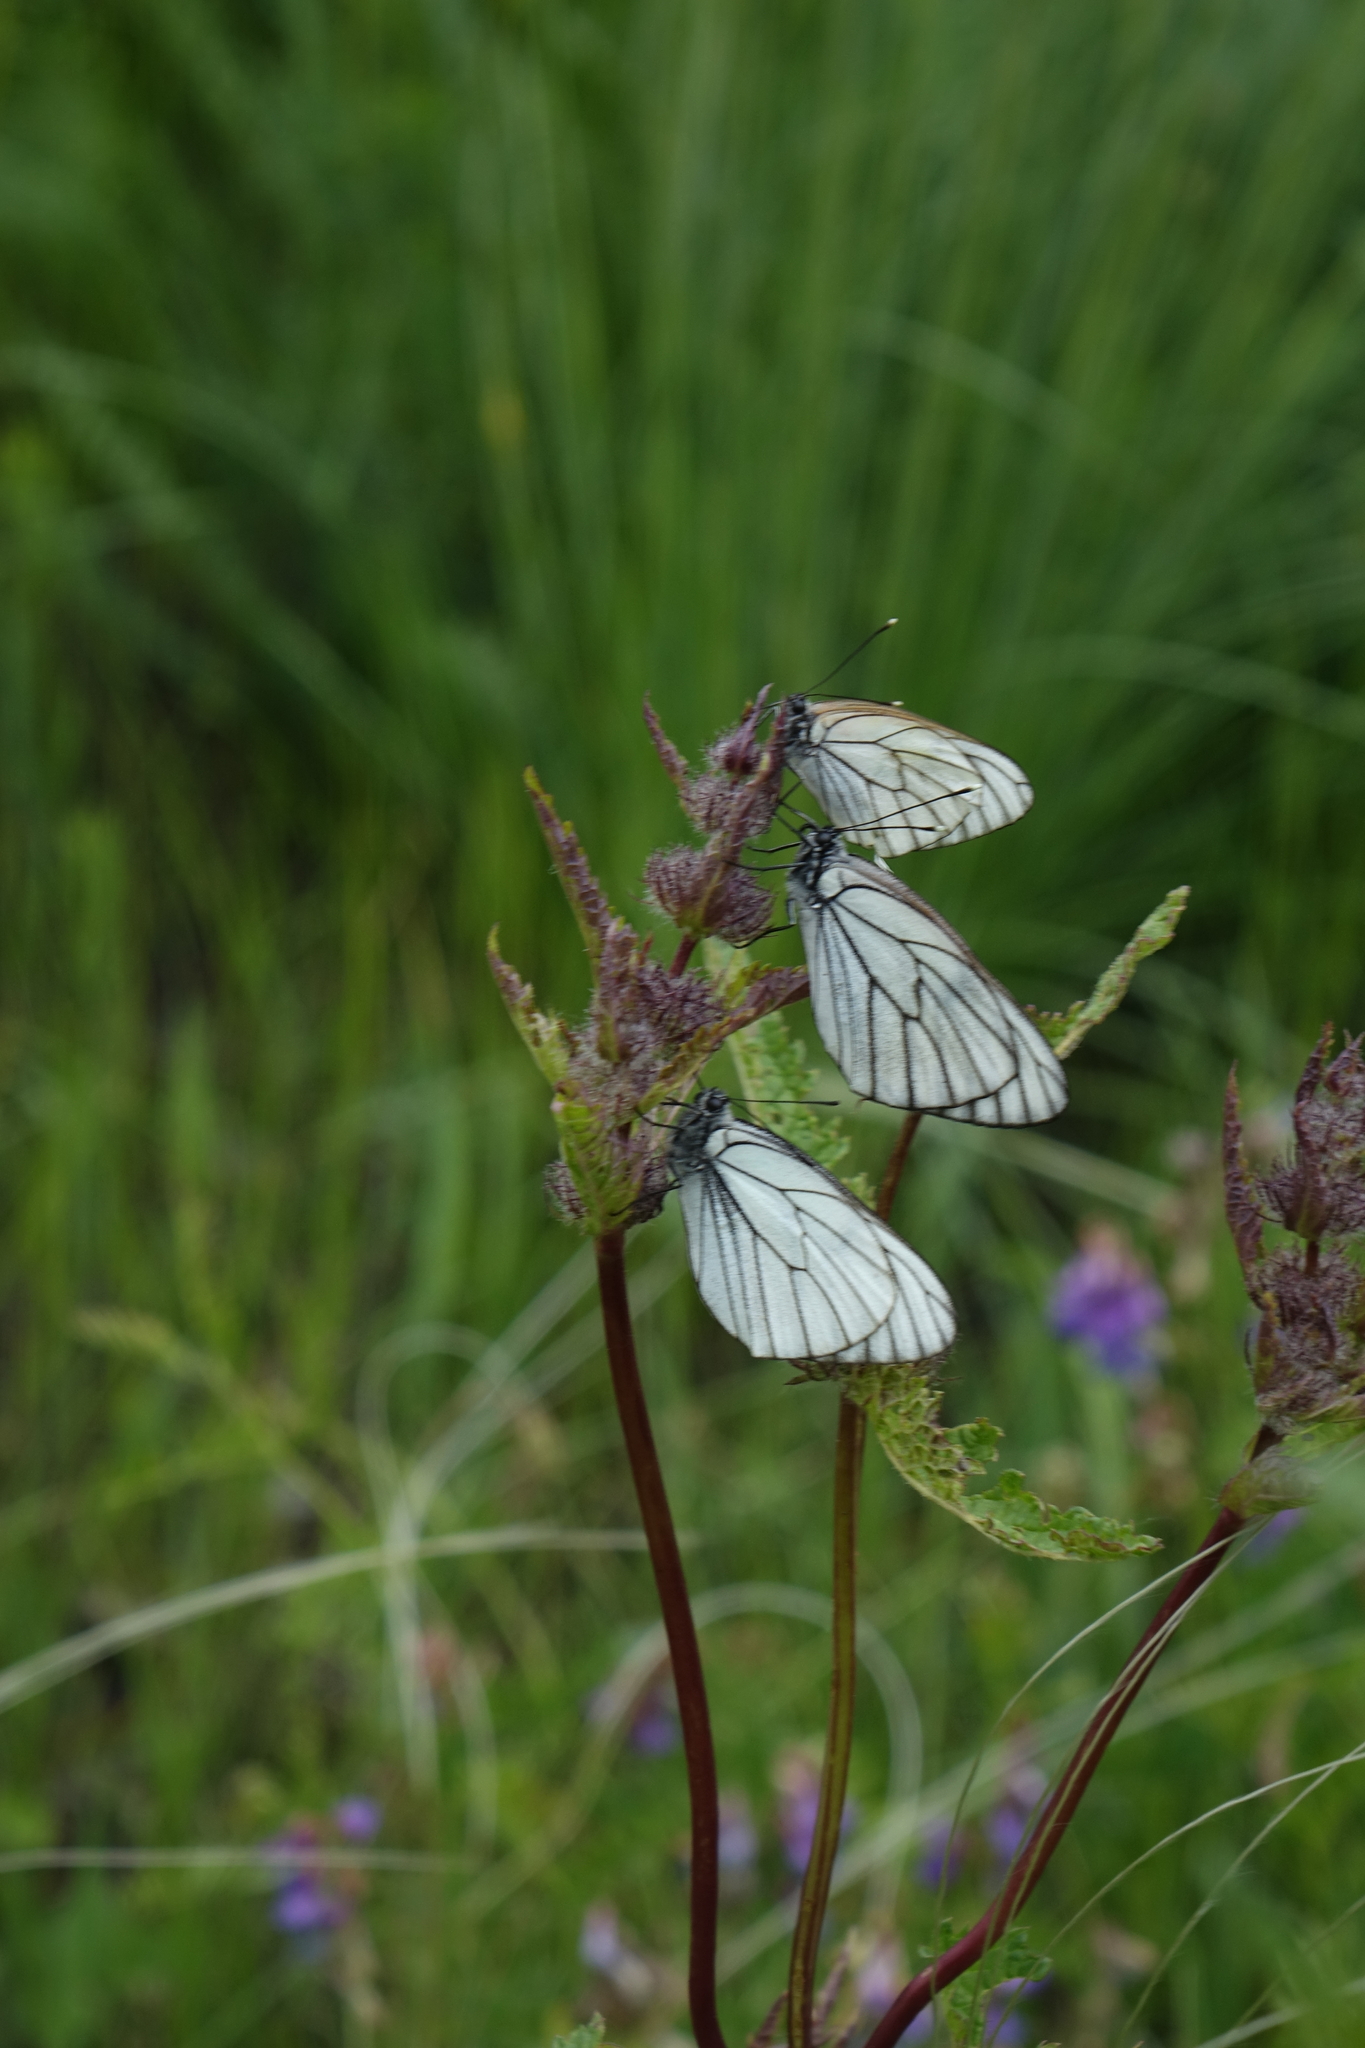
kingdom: Plantae
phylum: Tracheophyta
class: Magnoliopsida
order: Lamiales
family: Lamiaceae
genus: Phlomoides
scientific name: Phlomoides tuberosa
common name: Tuberous jerusalem sage
